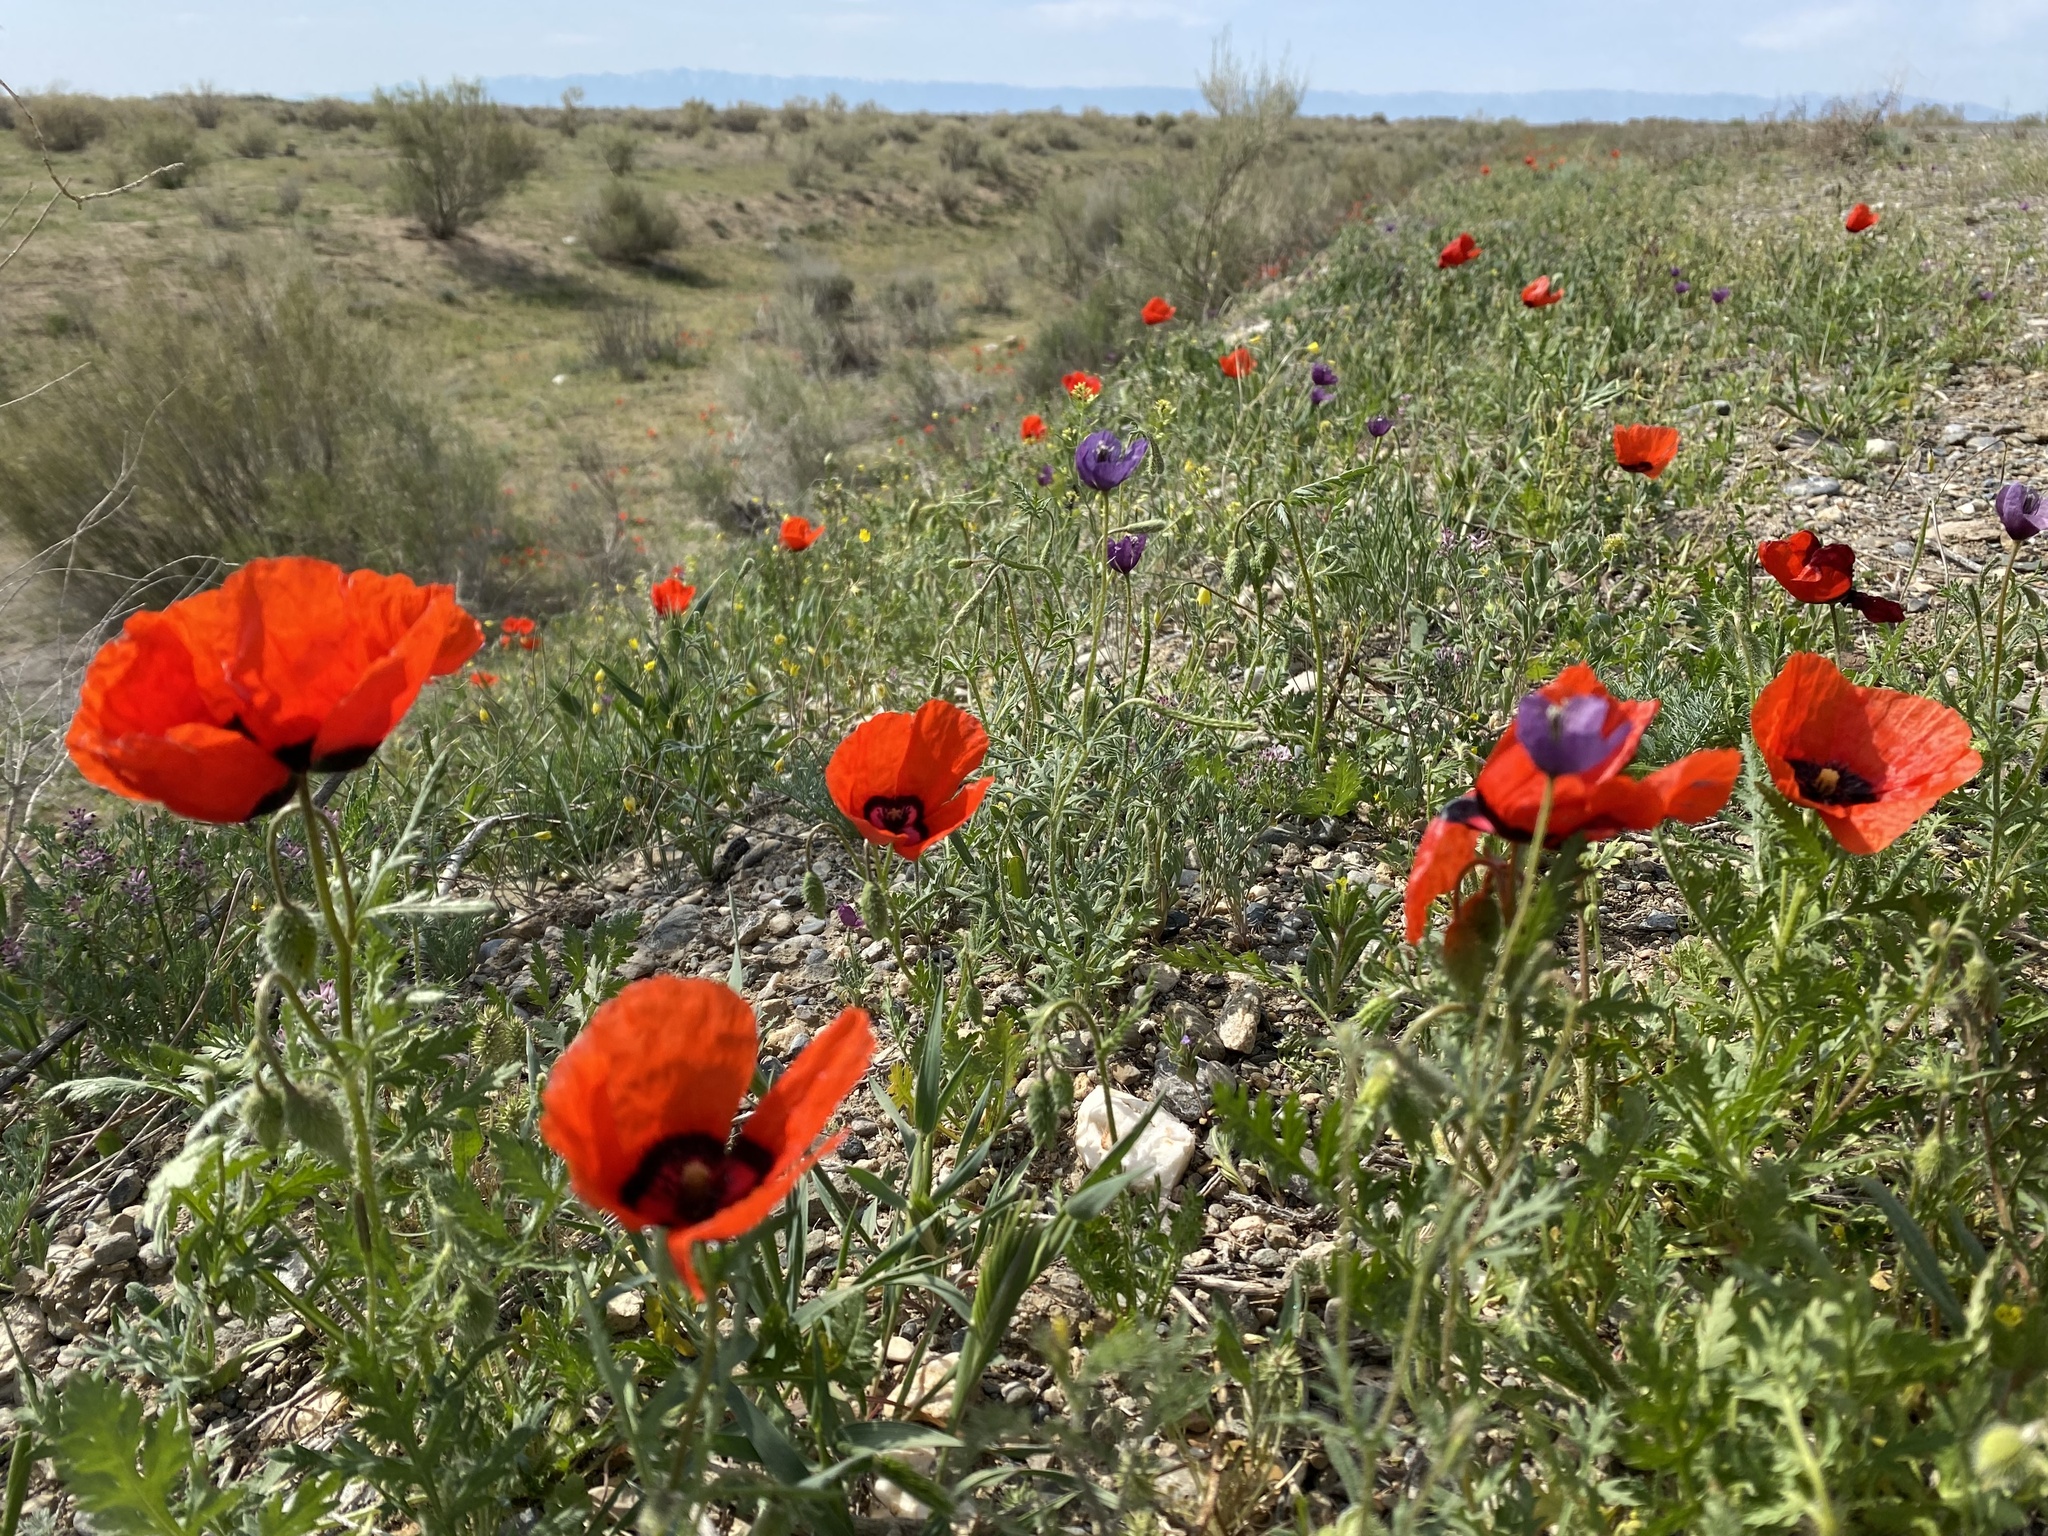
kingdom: Plantae
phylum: Tracheophyta
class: Magnoliopsida
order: Ranunculales
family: Papaveraceae
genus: Roemeria
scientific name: Roemeria pavonina
